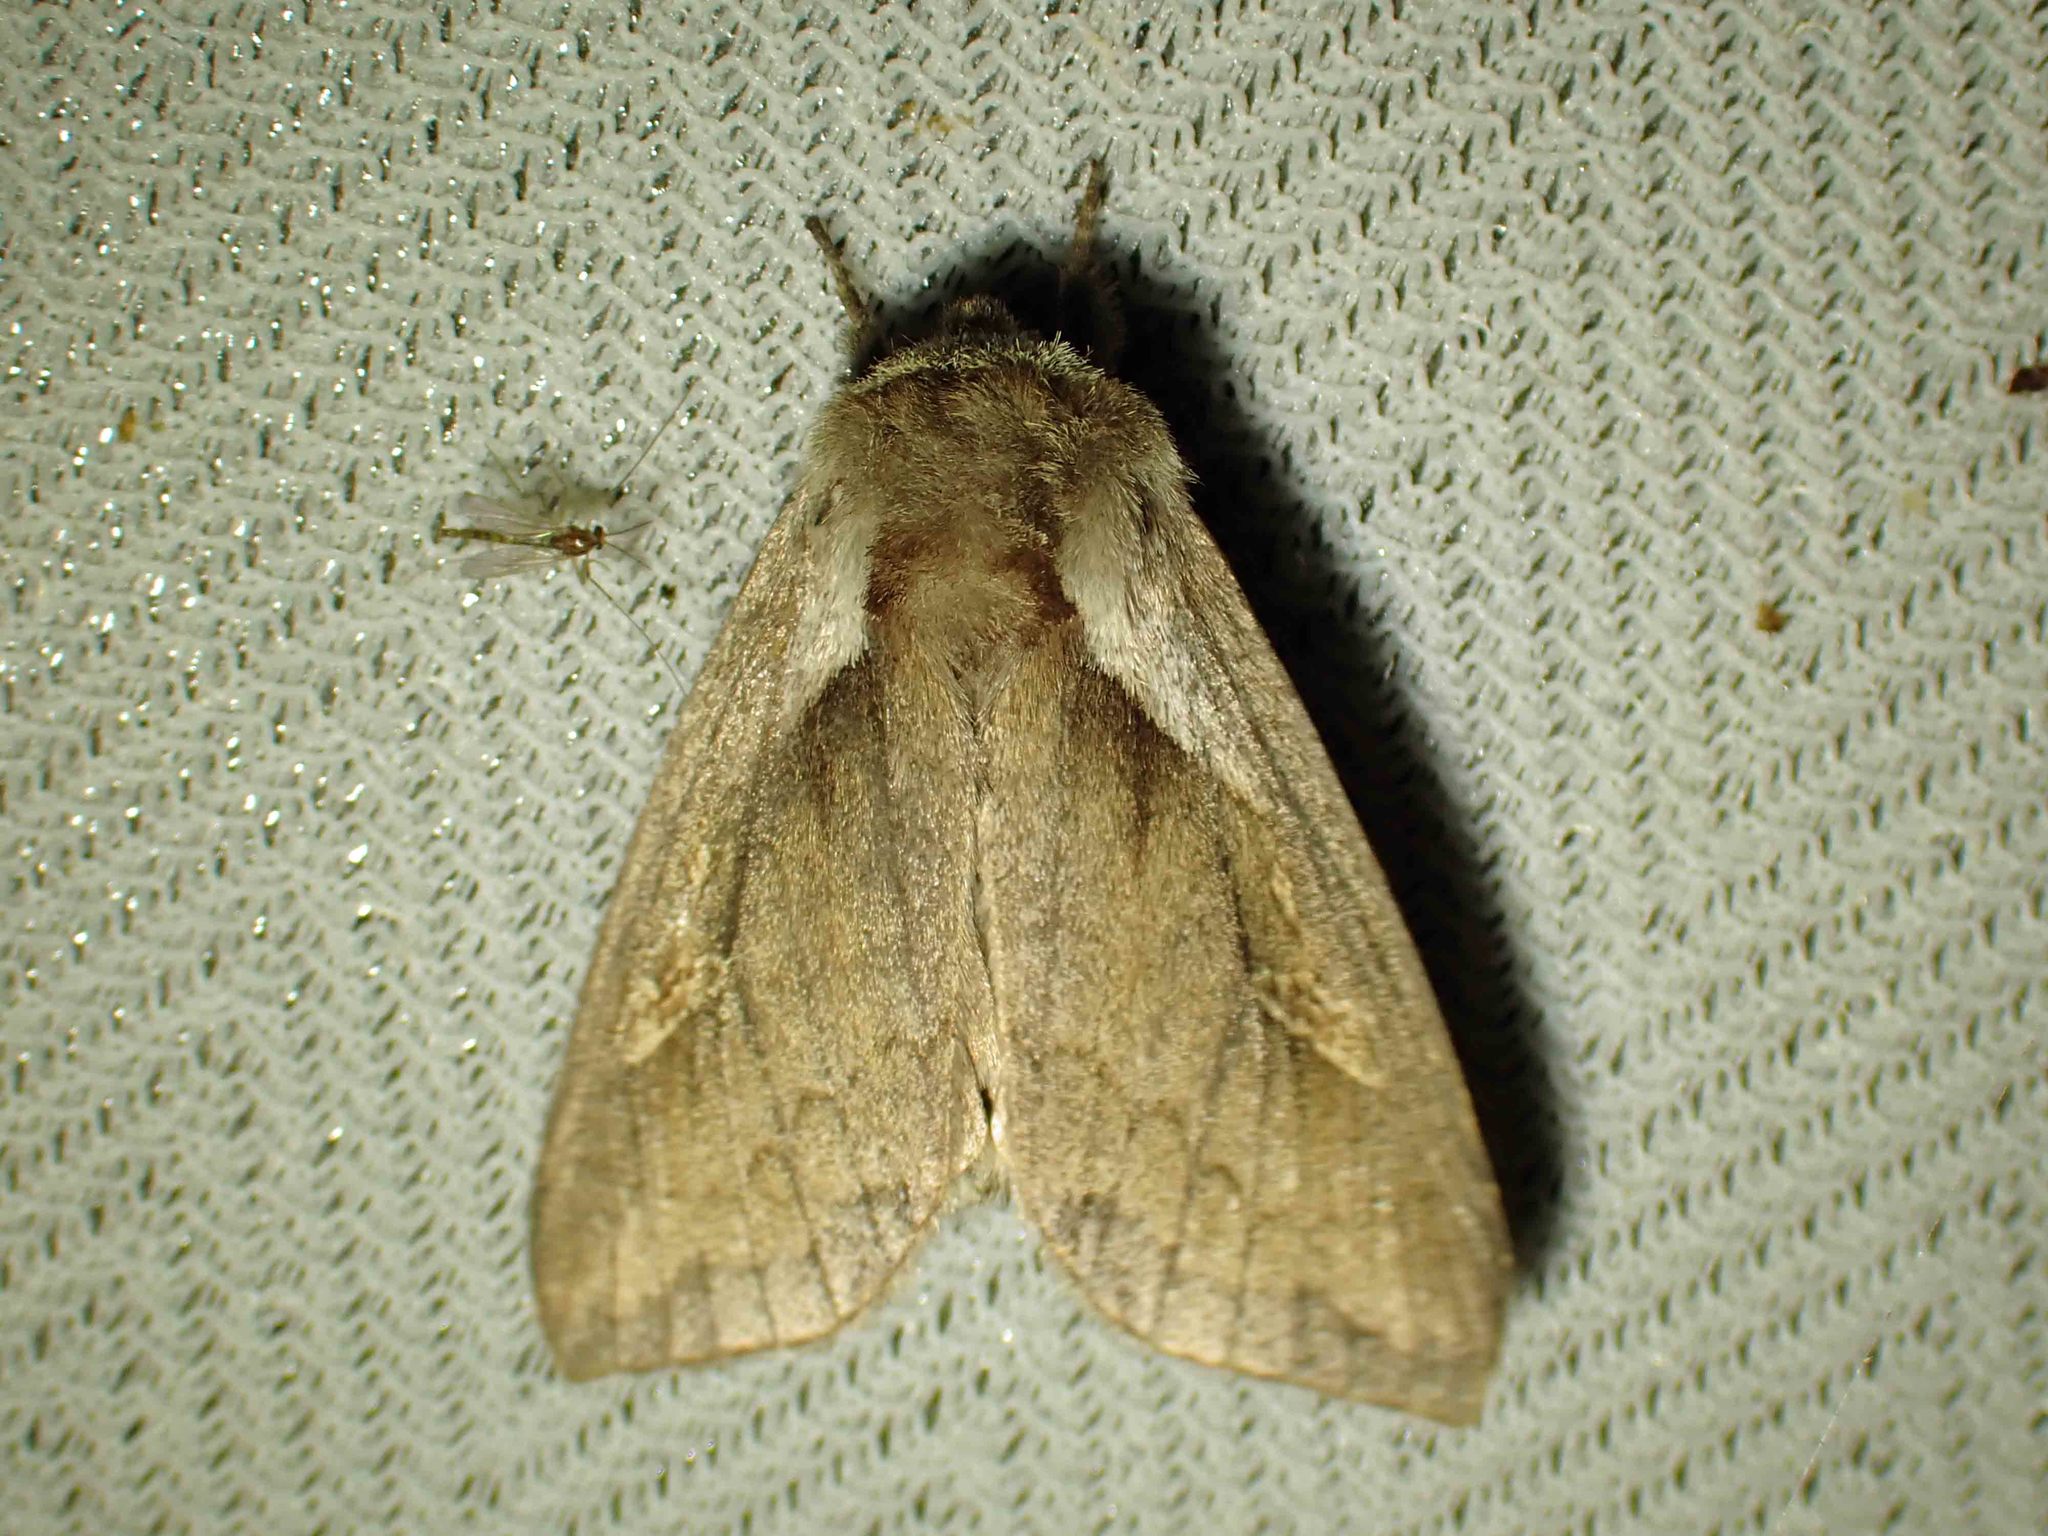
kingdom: Animalia
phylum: Arthropoda
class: Insecta
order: Lepidoptera
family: Noctuidae
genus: Bellura
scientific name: Bellura obliqua
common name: Cattail borer moth
